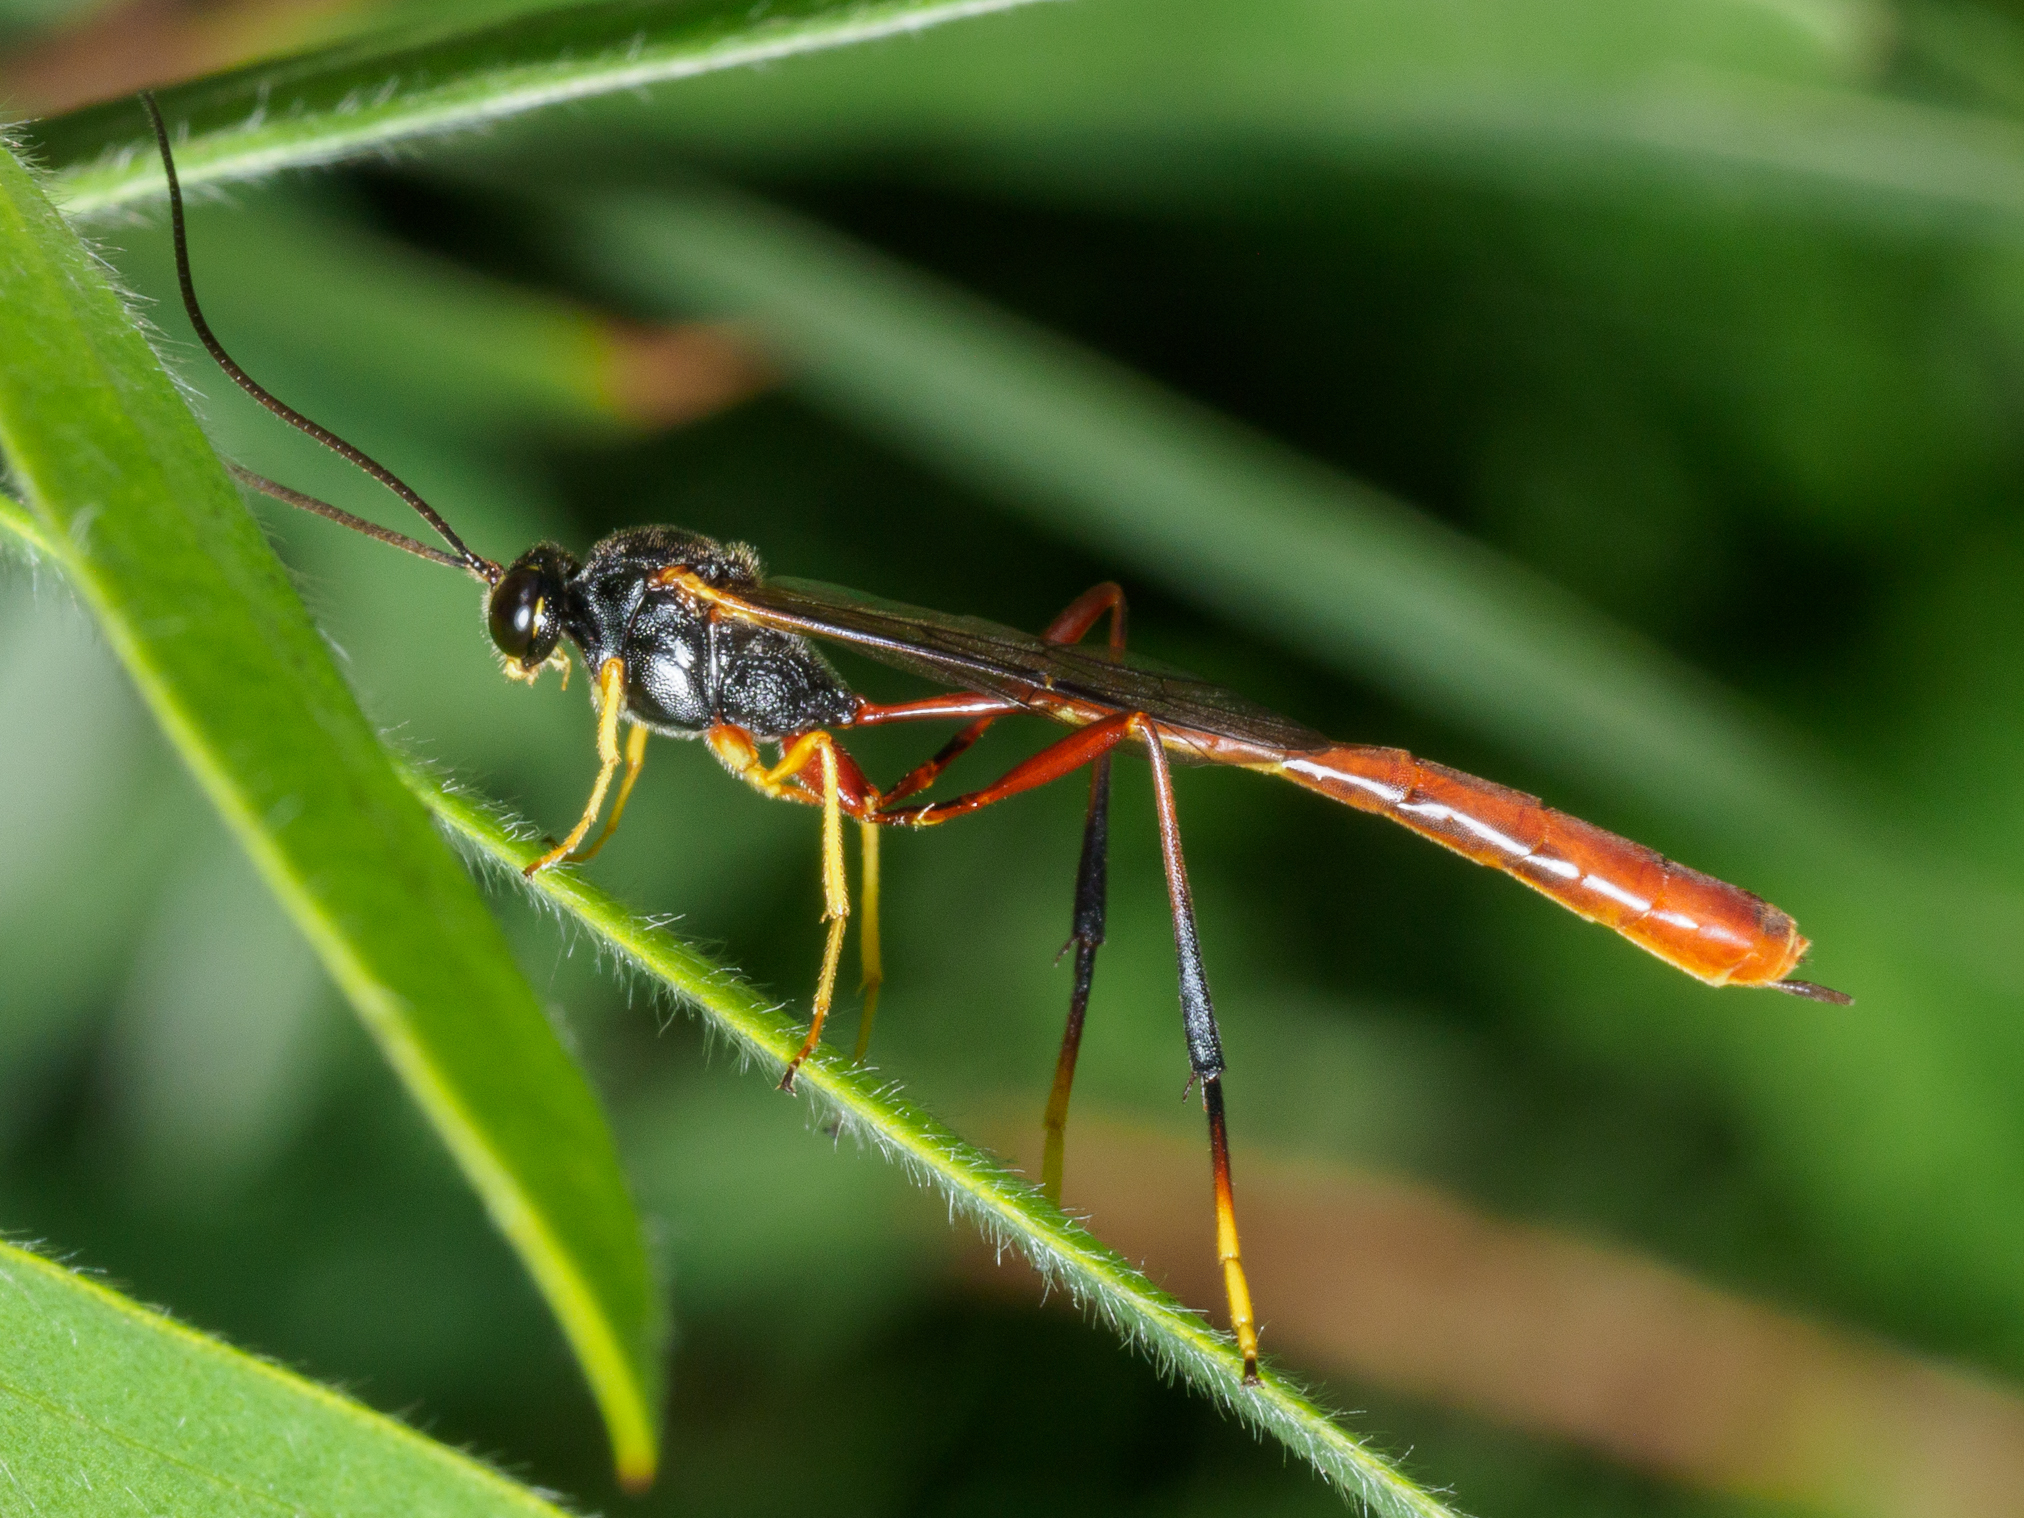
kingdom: Animalia
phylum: Arthropoda
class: Insecta
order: Hymenoptera
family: Ichneumonidae
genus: Heteropelma
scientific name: Heteropelma scaposum
